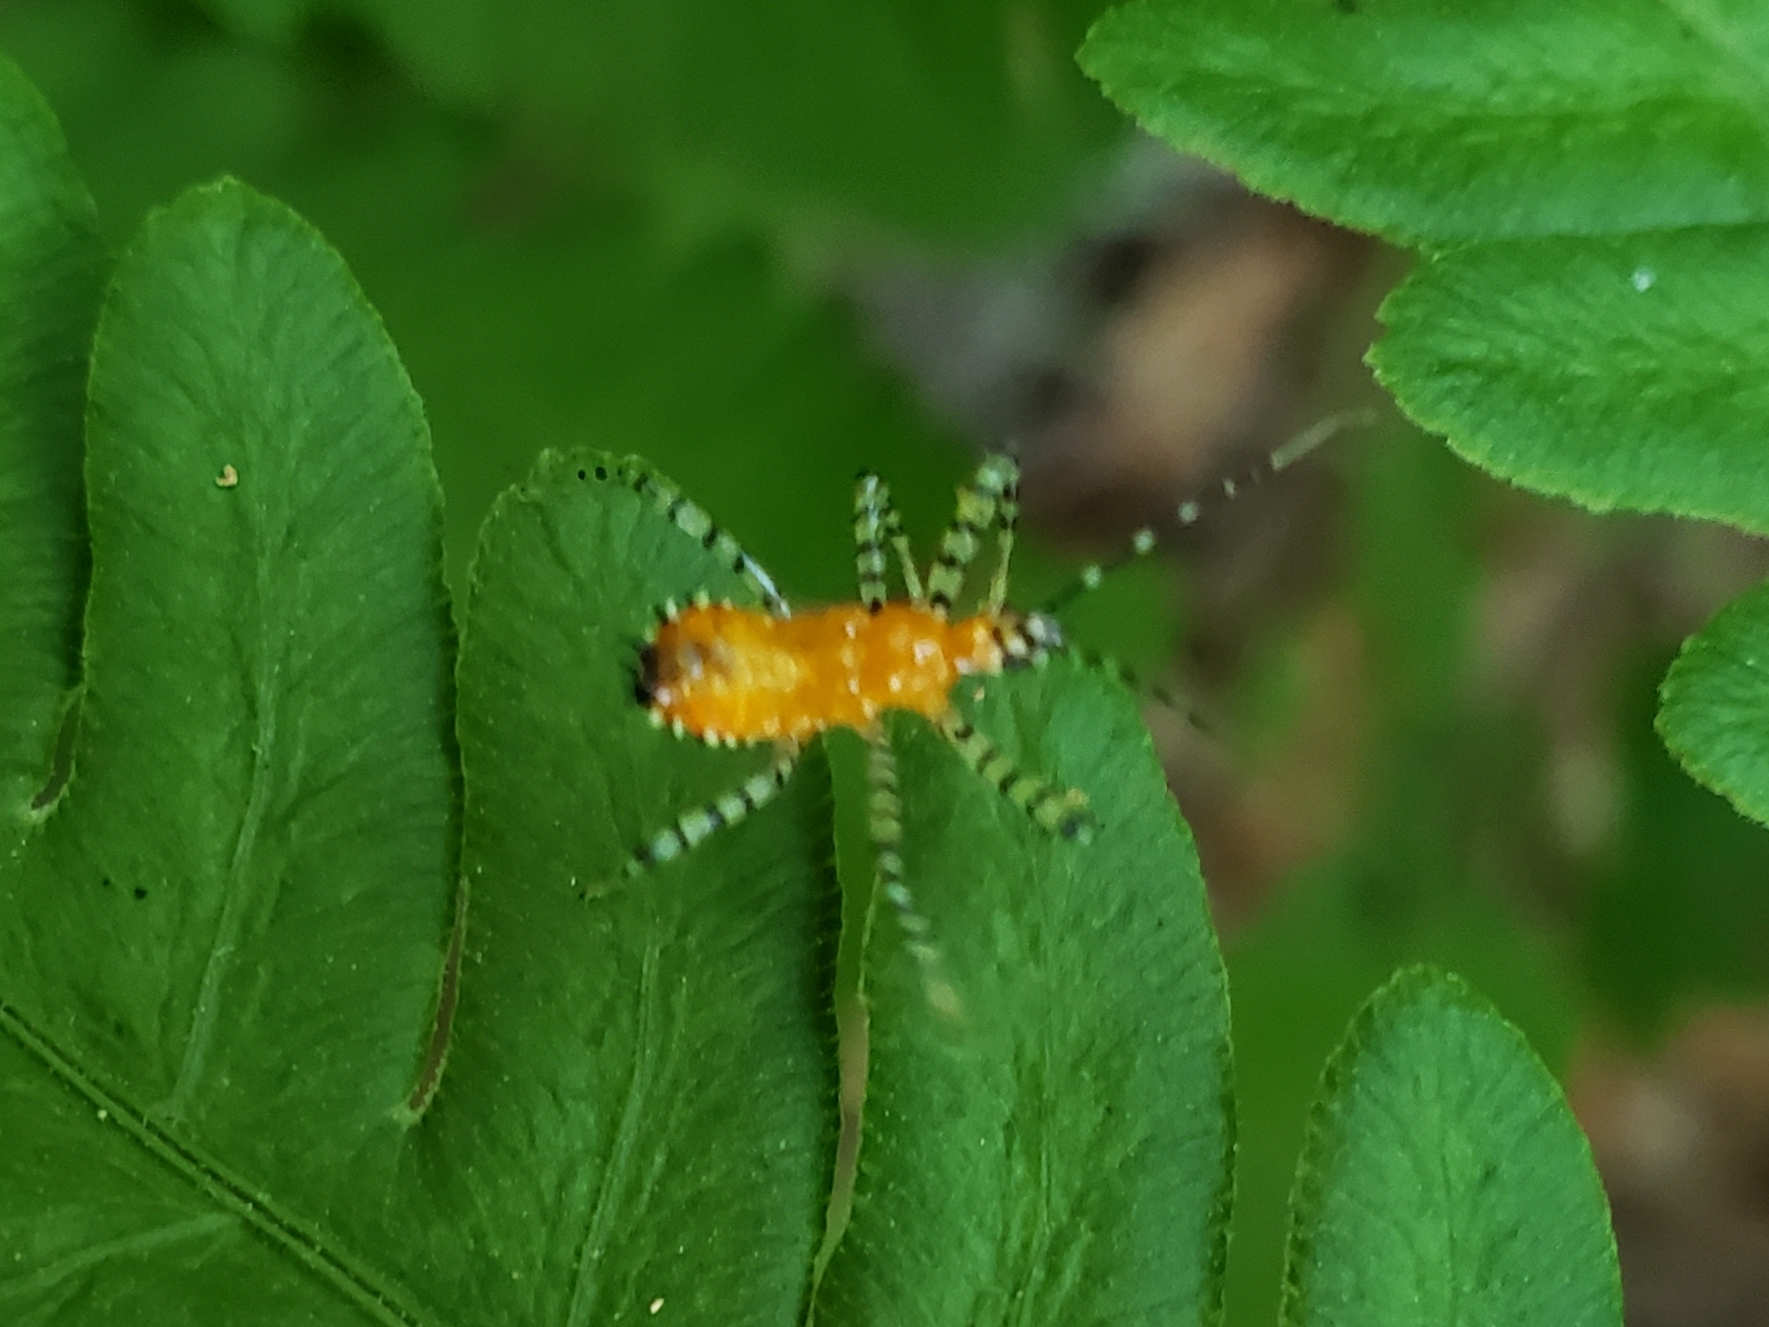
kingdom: Animalia
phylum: Arthropoda
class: Insecta
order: Hemiptera
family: Reduviidae
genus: Pselliopus
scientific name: Pselliopus cinctus
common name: Ringed assassin bug
